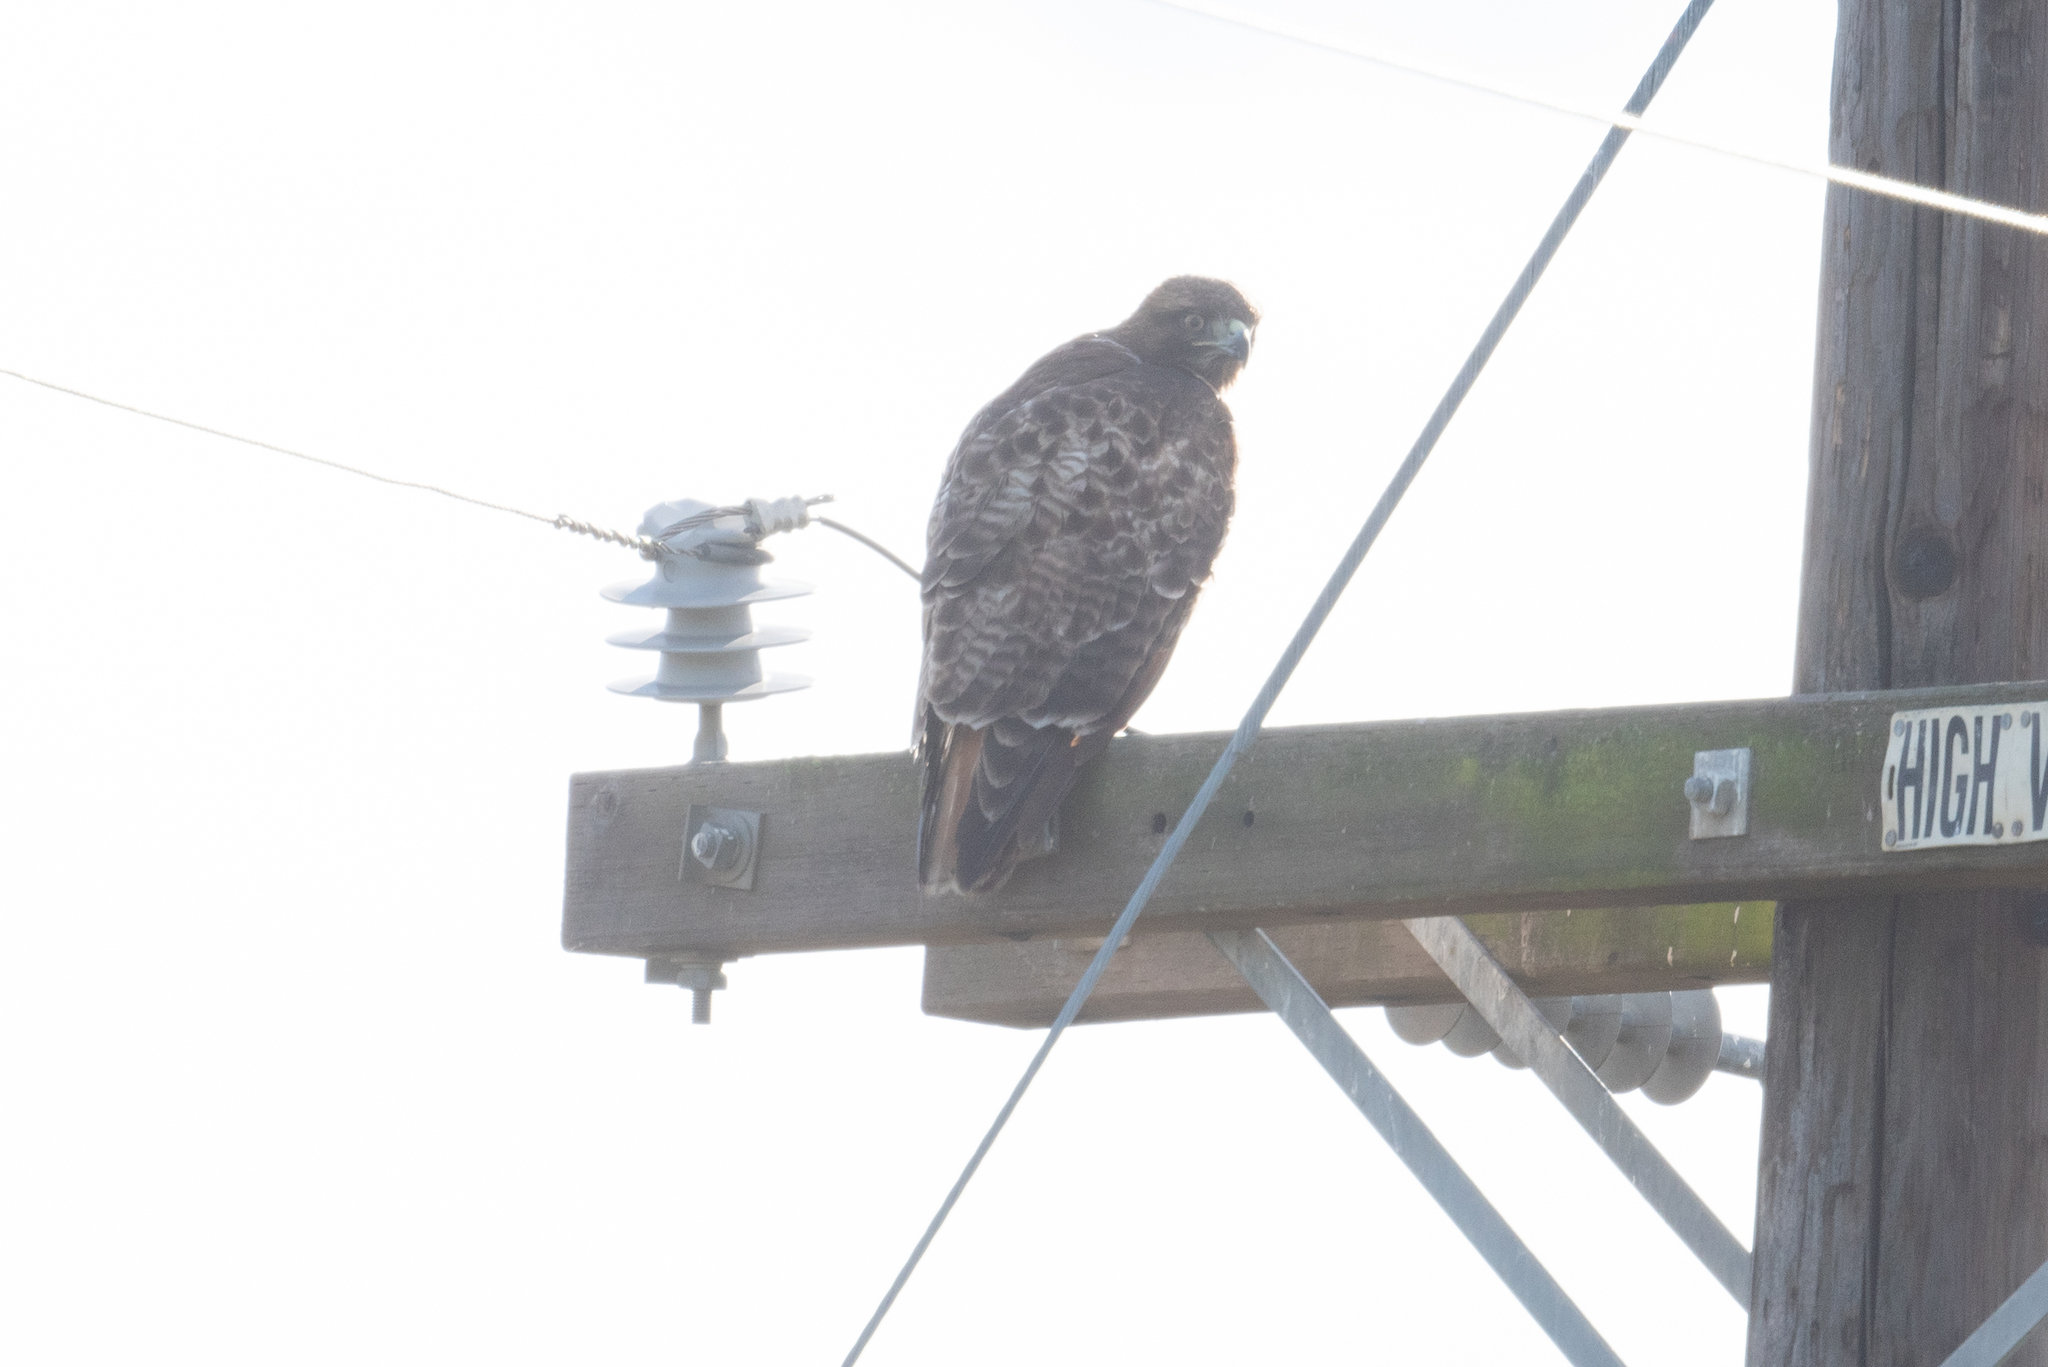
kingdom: Animalia
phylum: Chordata
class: Aves
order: Accipitriformes
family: Accipitridae
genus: Buteo
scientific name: Buteo jamaicensis
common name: Red-tailed hawk
